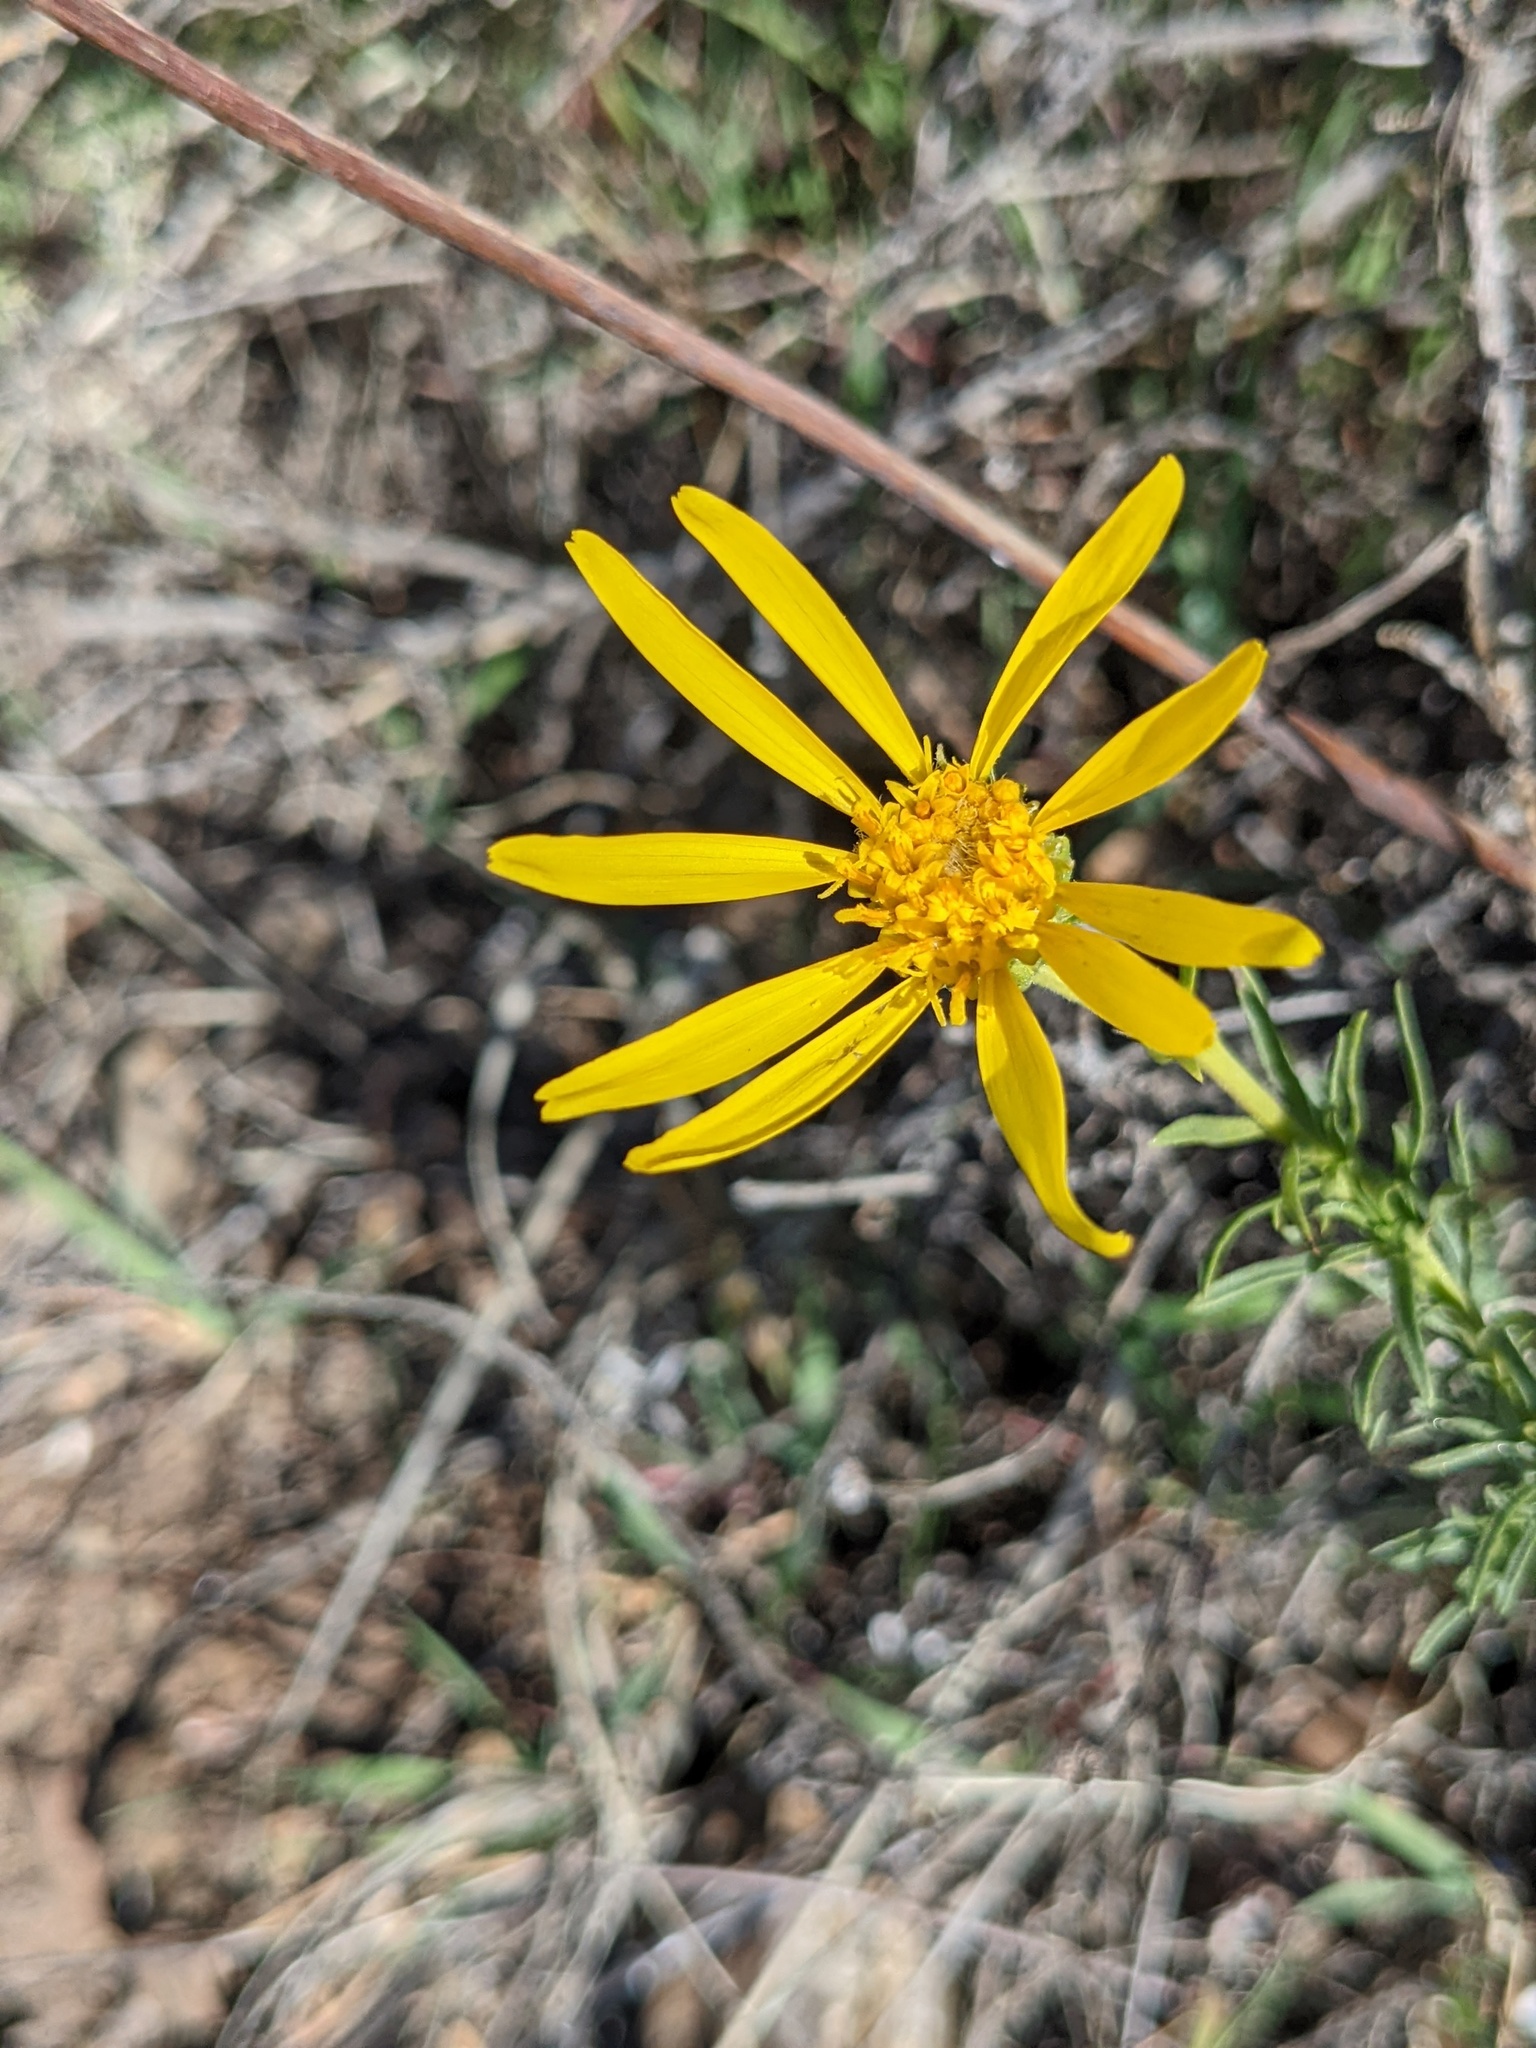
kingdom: Plantae
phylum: Tracheophyta
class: Magnoliopsida
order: Asterales
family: Asteraceae
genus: Ericameria
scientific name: Ericameria linearifolia
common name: Interior goldenbush
